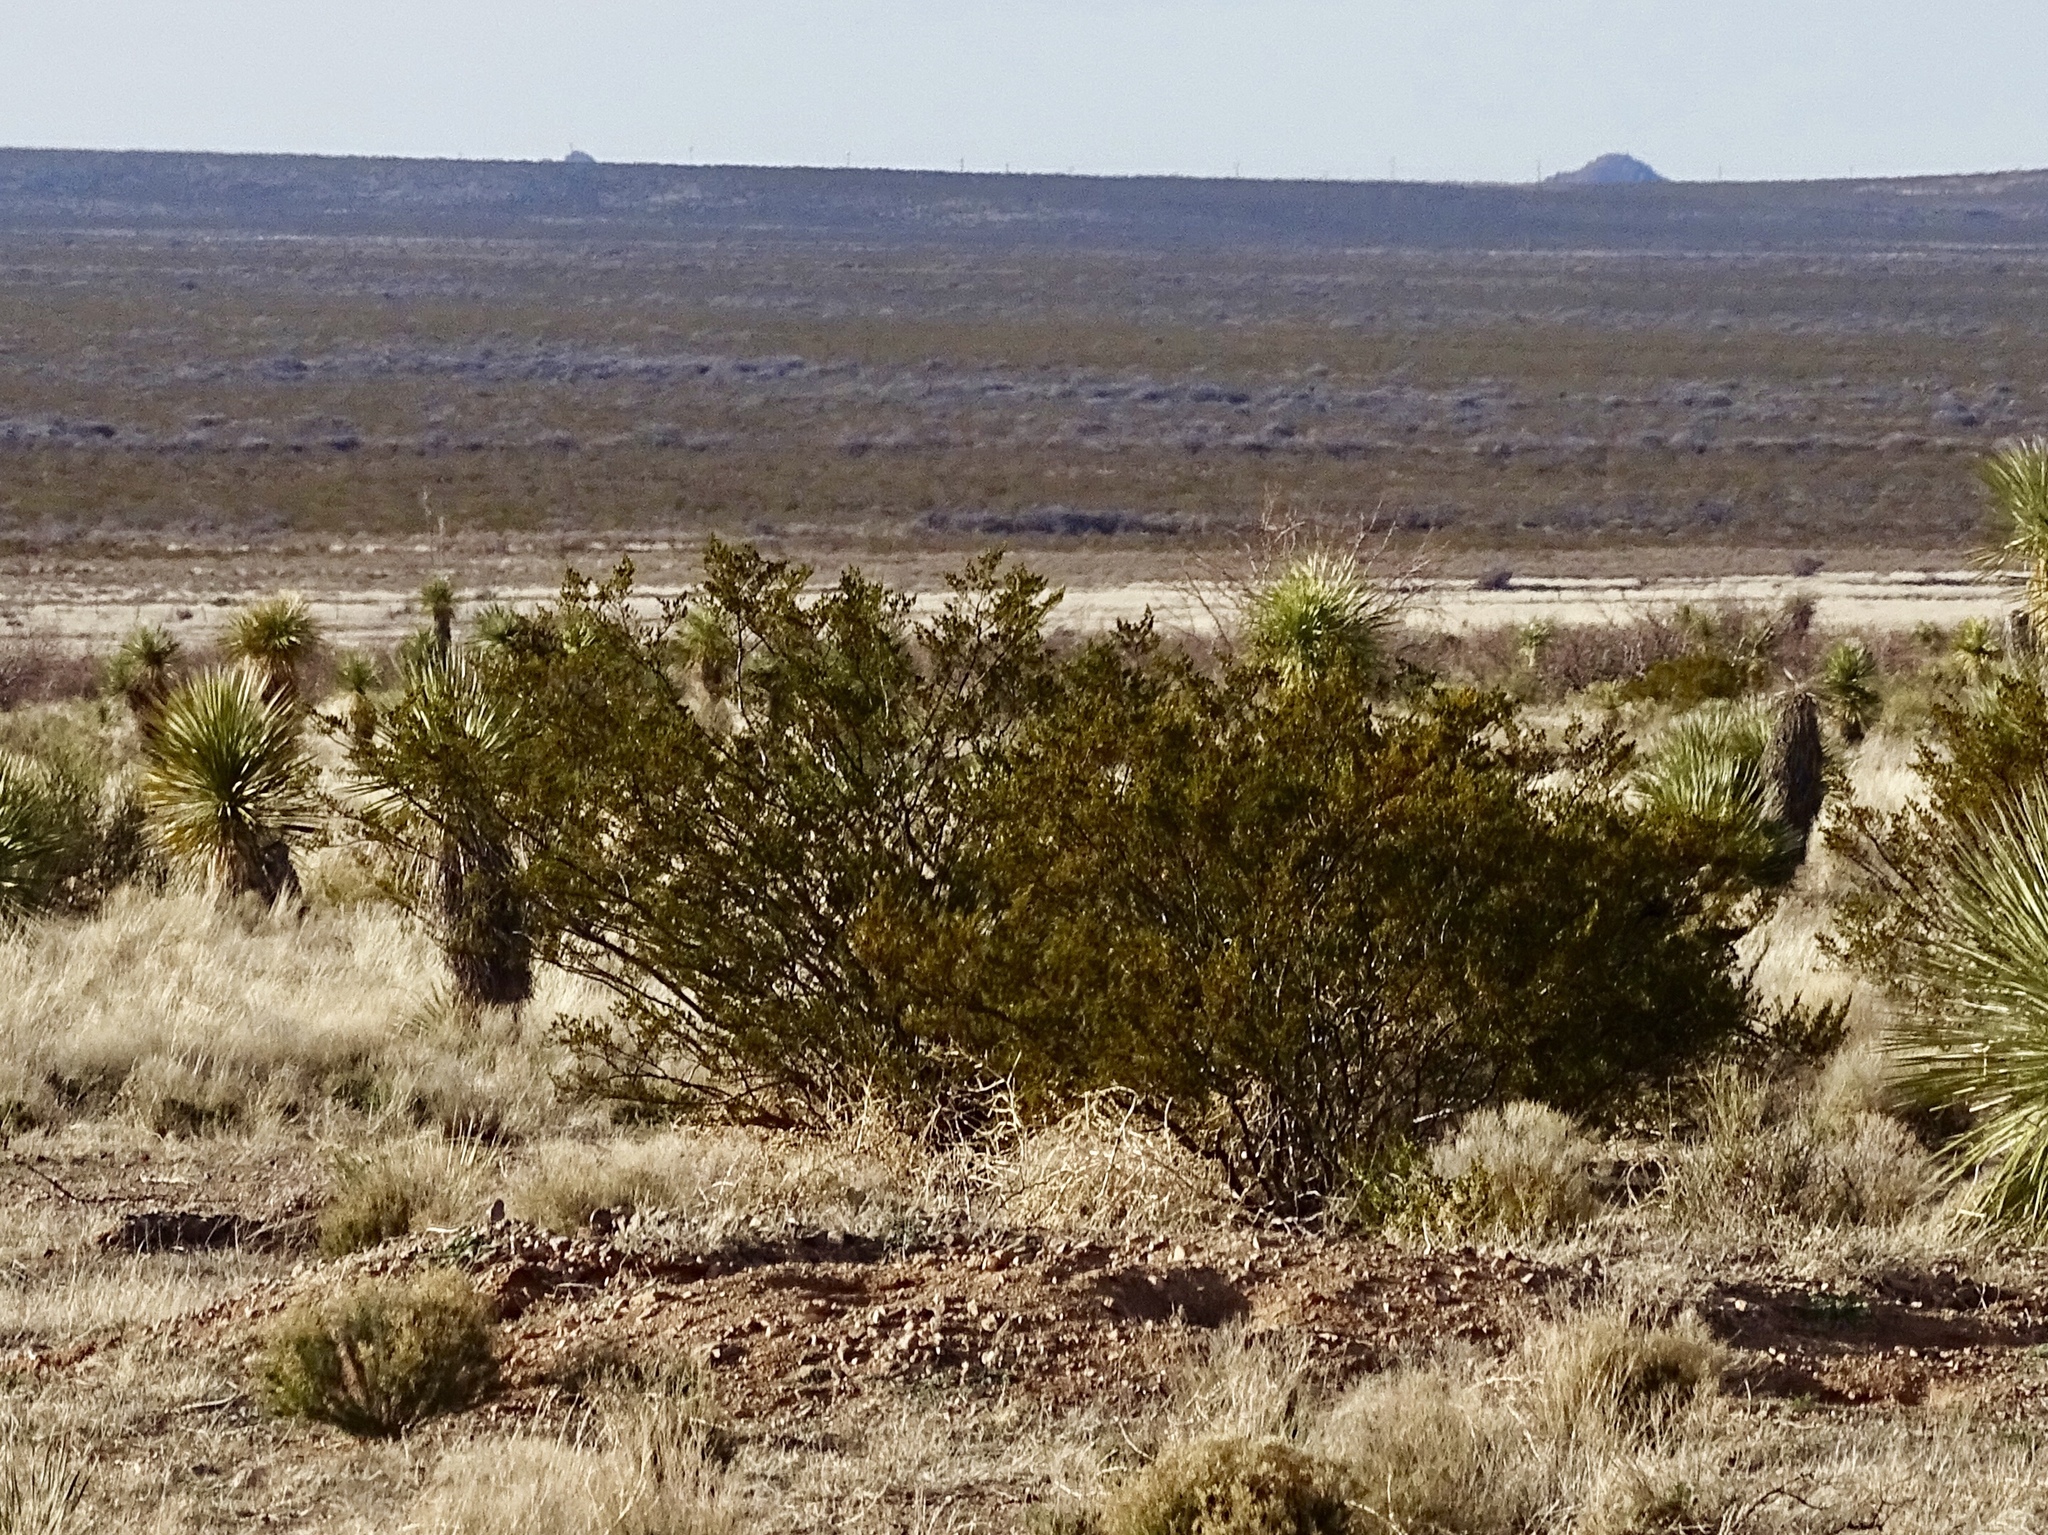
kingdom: Plantae
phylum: Tracheophyta
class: Magnoliopsida
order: Zygophyllales
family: Zygophyllaceae
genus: Larrea
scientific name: Larrea tridentata
